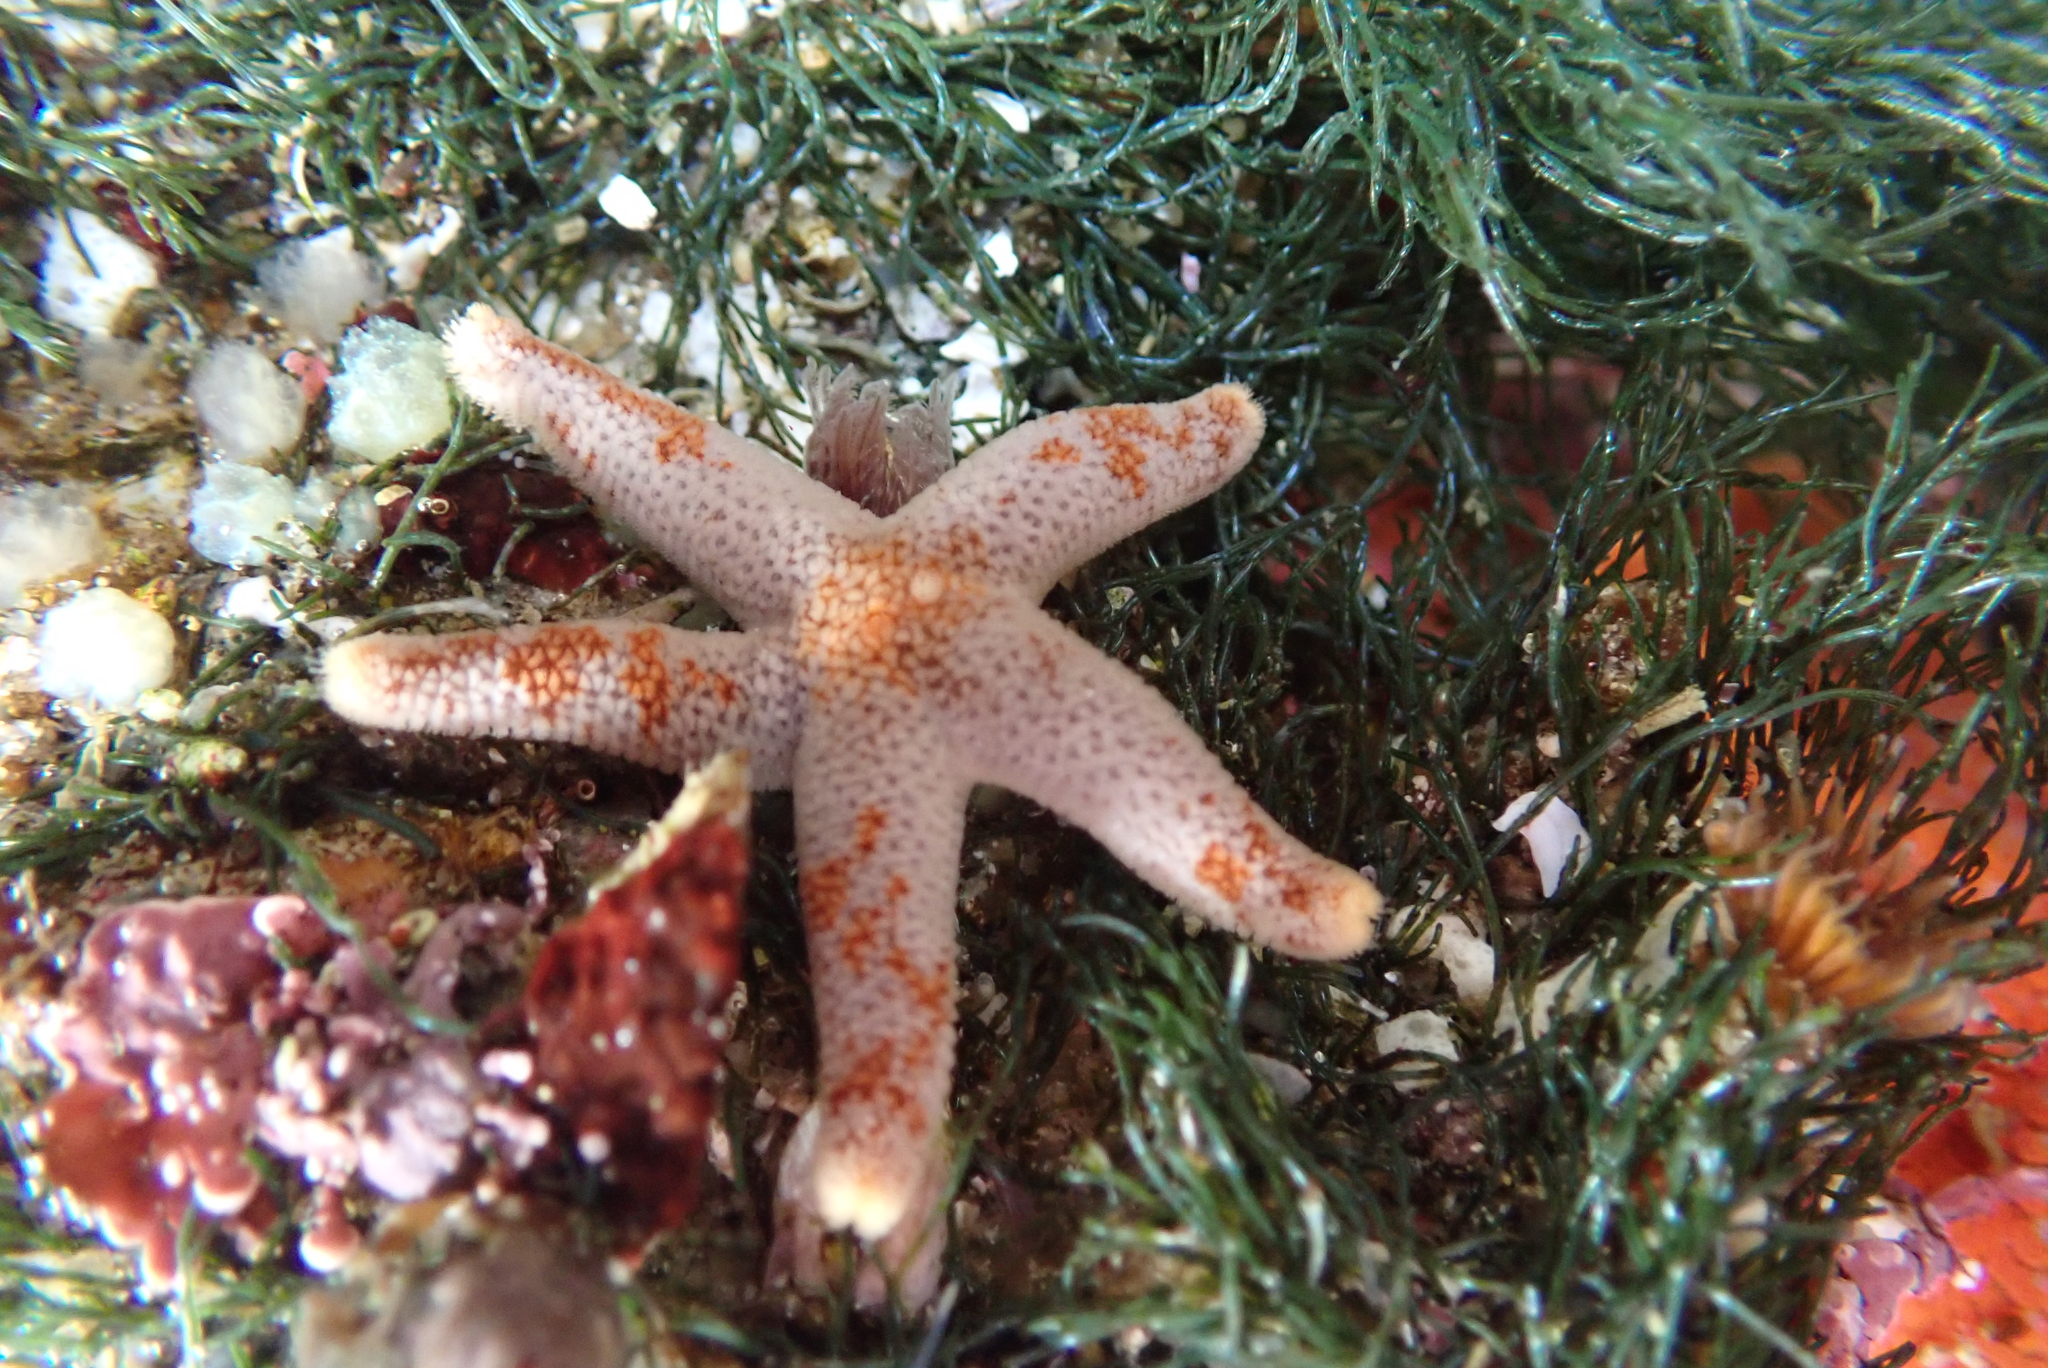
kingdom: Animalia
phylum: Echinodermata
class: Asteroidea
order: Spinulosida
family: Echinasteridae
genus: Henricia
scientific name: Henricia pumila
